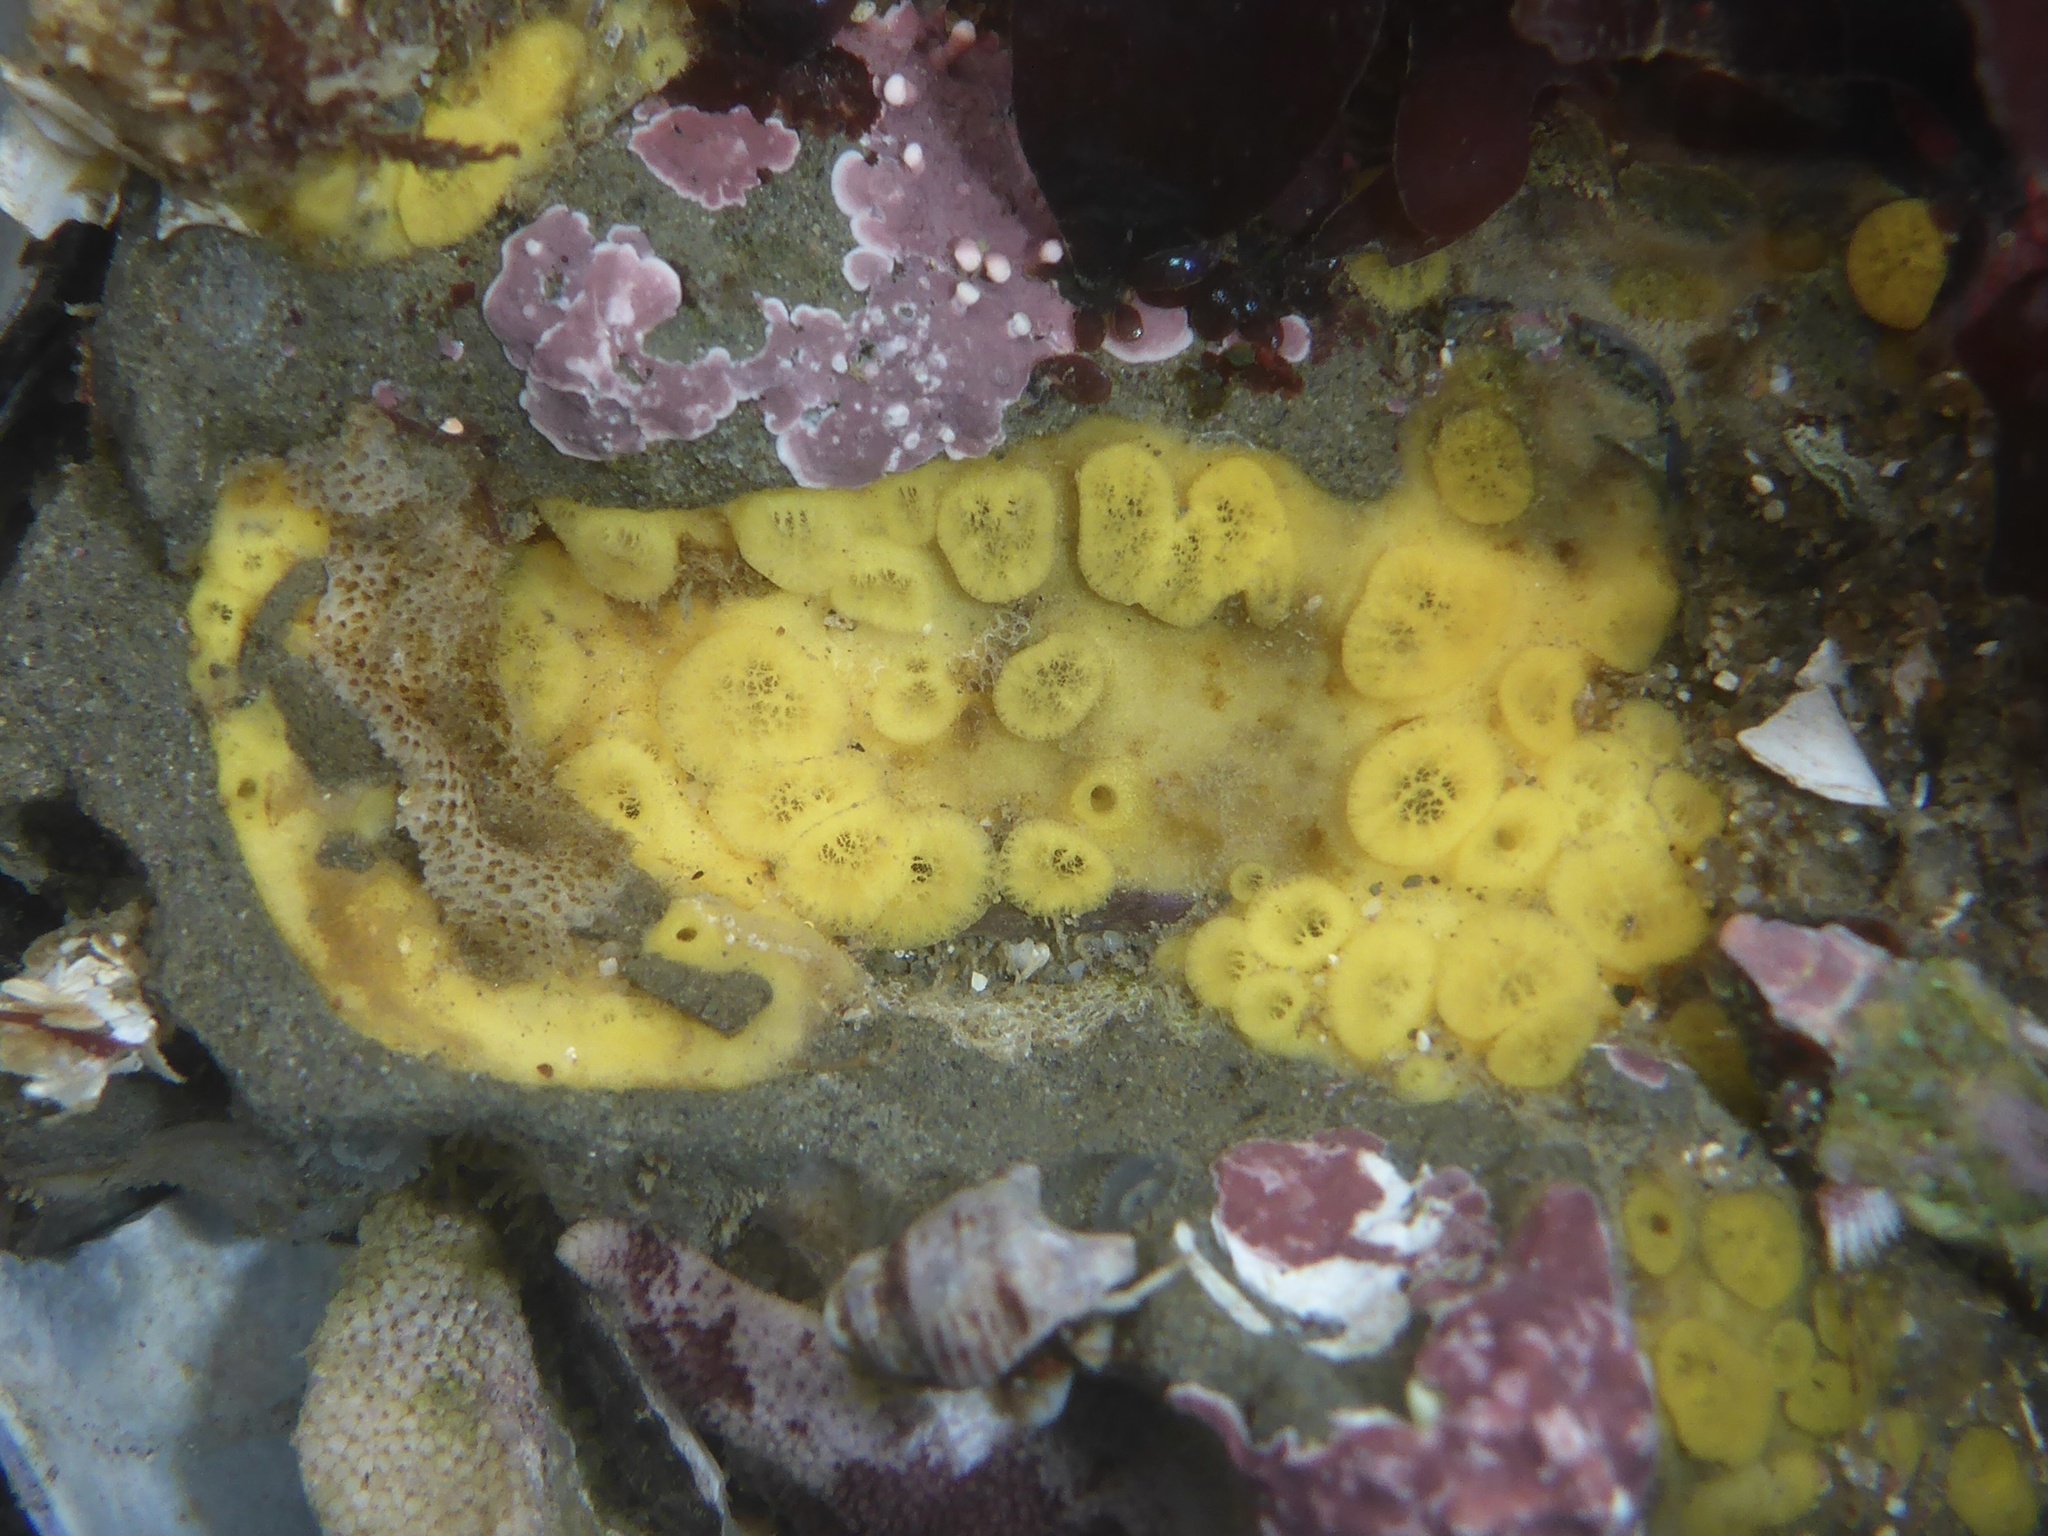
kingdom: Animalia
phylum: Porifera
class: Demospongiae
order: Clionaida
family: Clionaidae
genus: Cliona
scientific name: Cliona californiana
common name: California boring horny sponge
